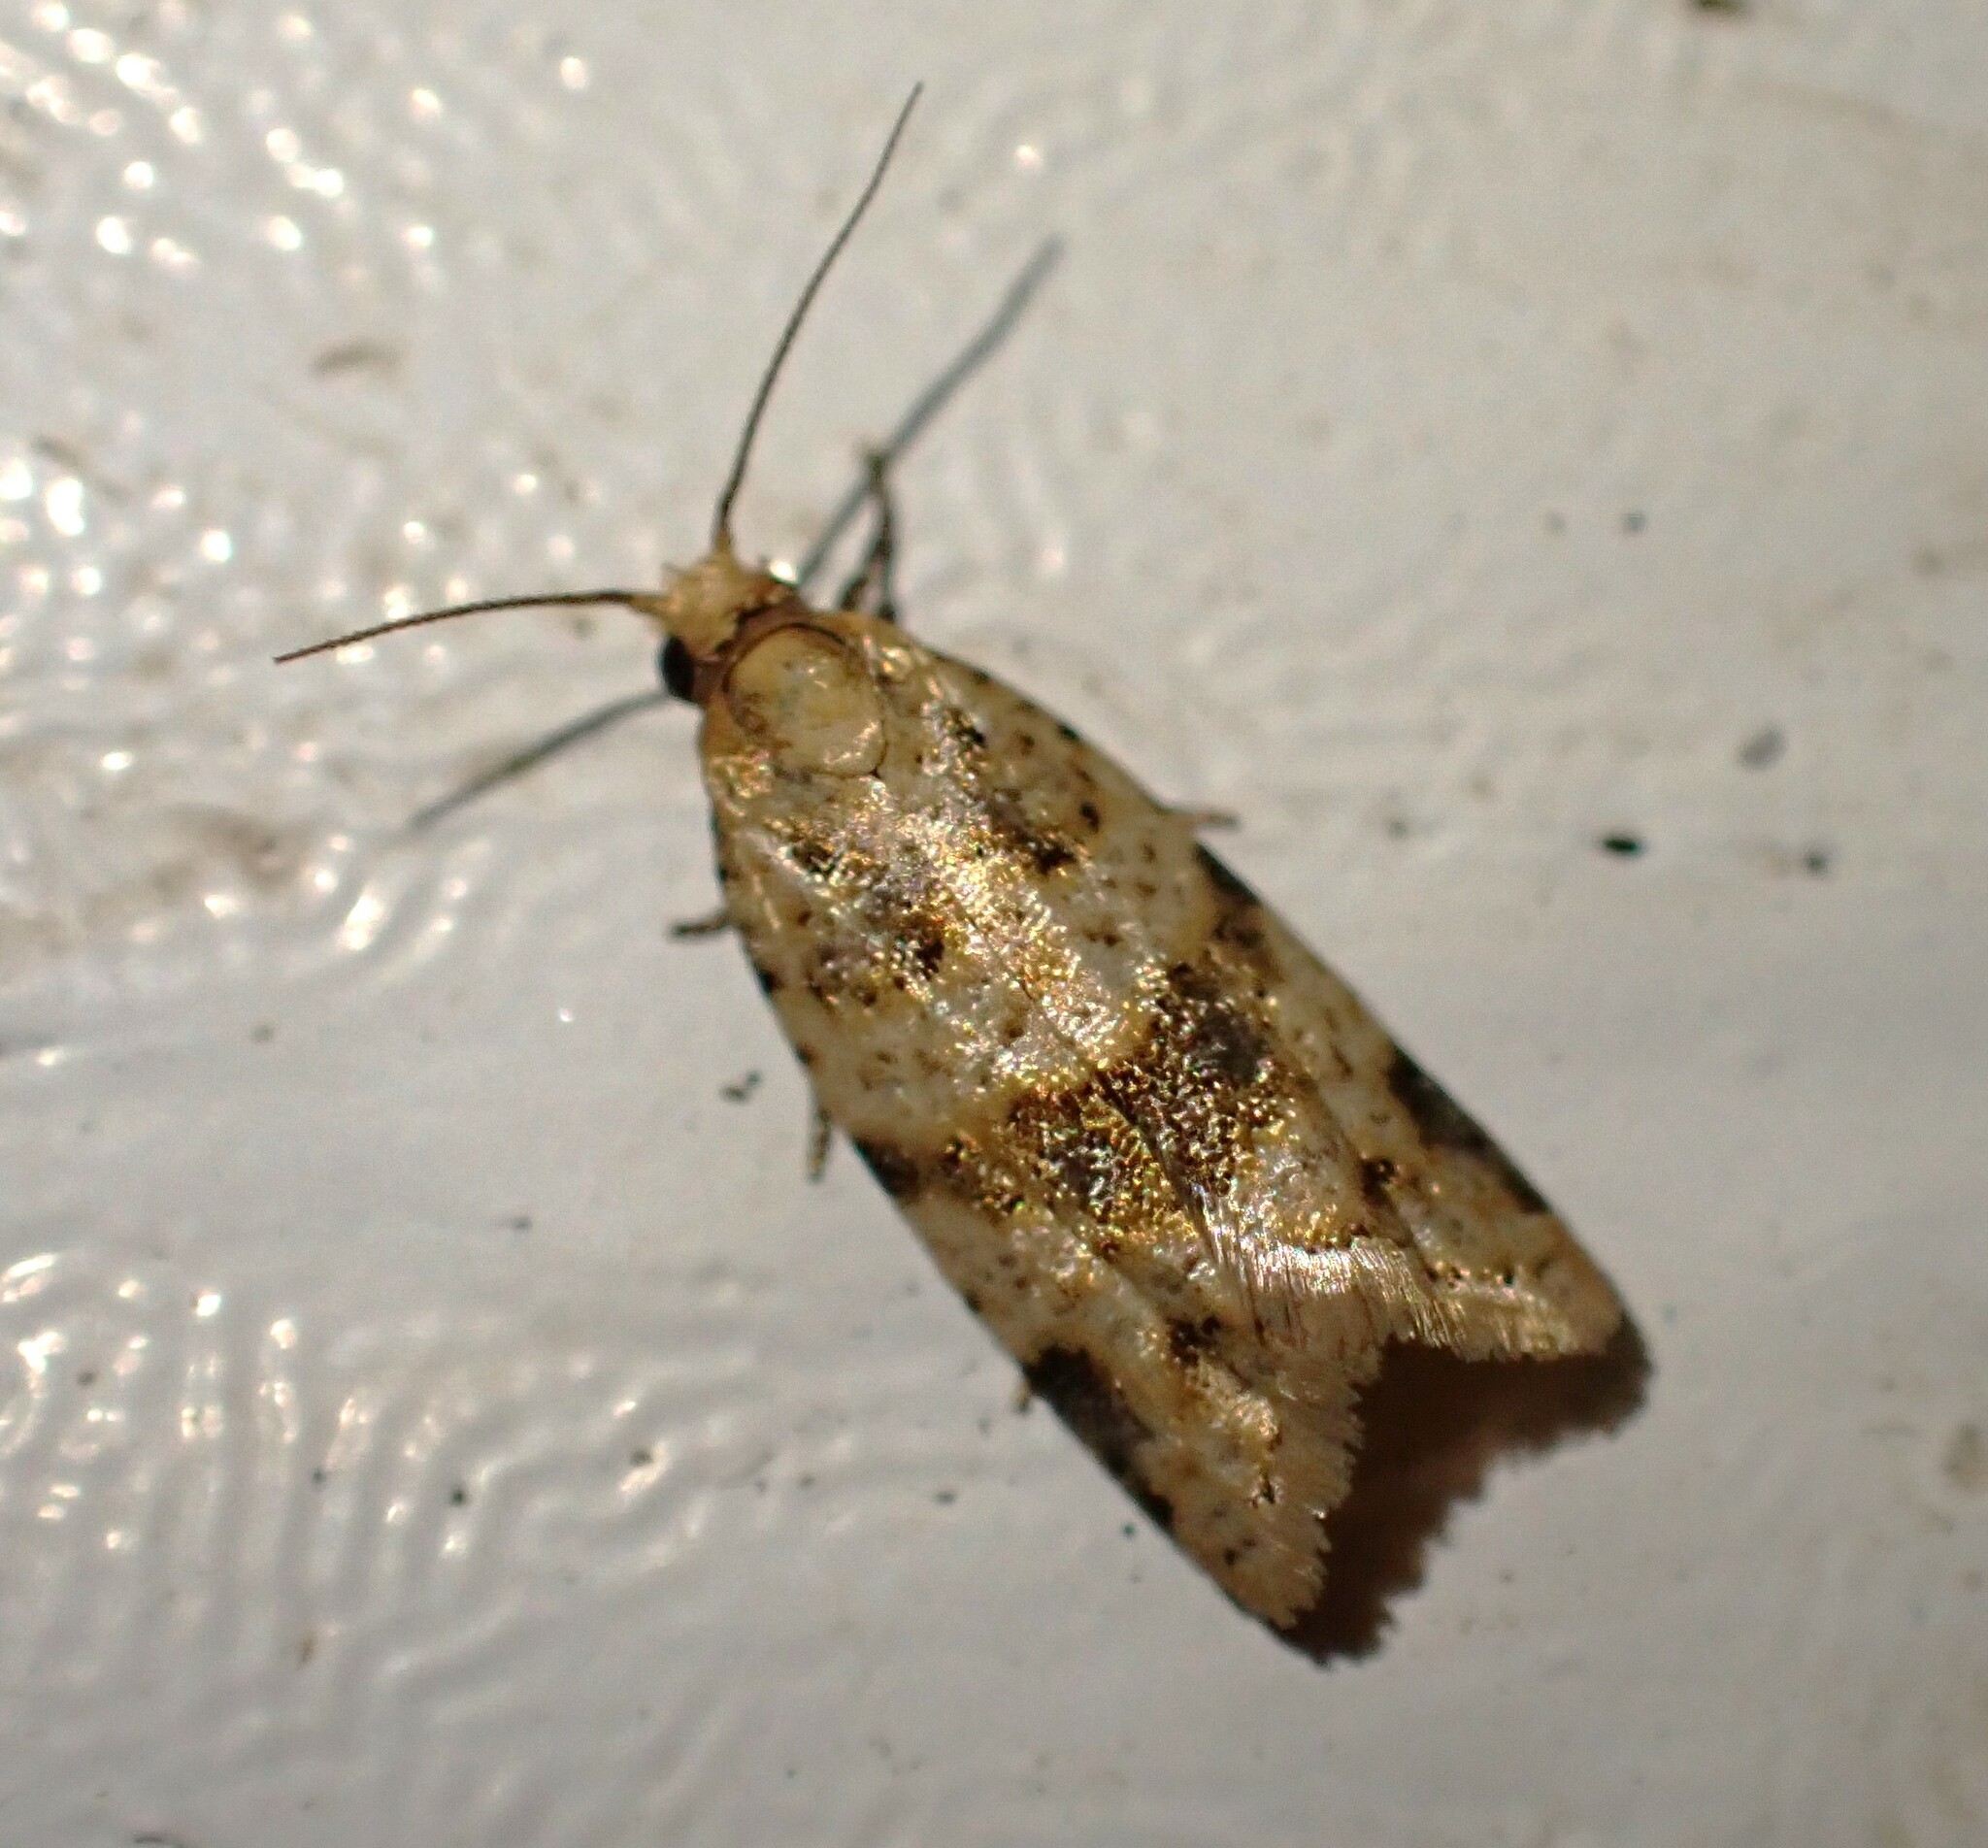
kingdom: Animalia
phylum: Arthropoda
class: Insecta
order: Lepidoptera
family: Tortricidae
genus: Droceta
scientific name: Droceta cedrota
